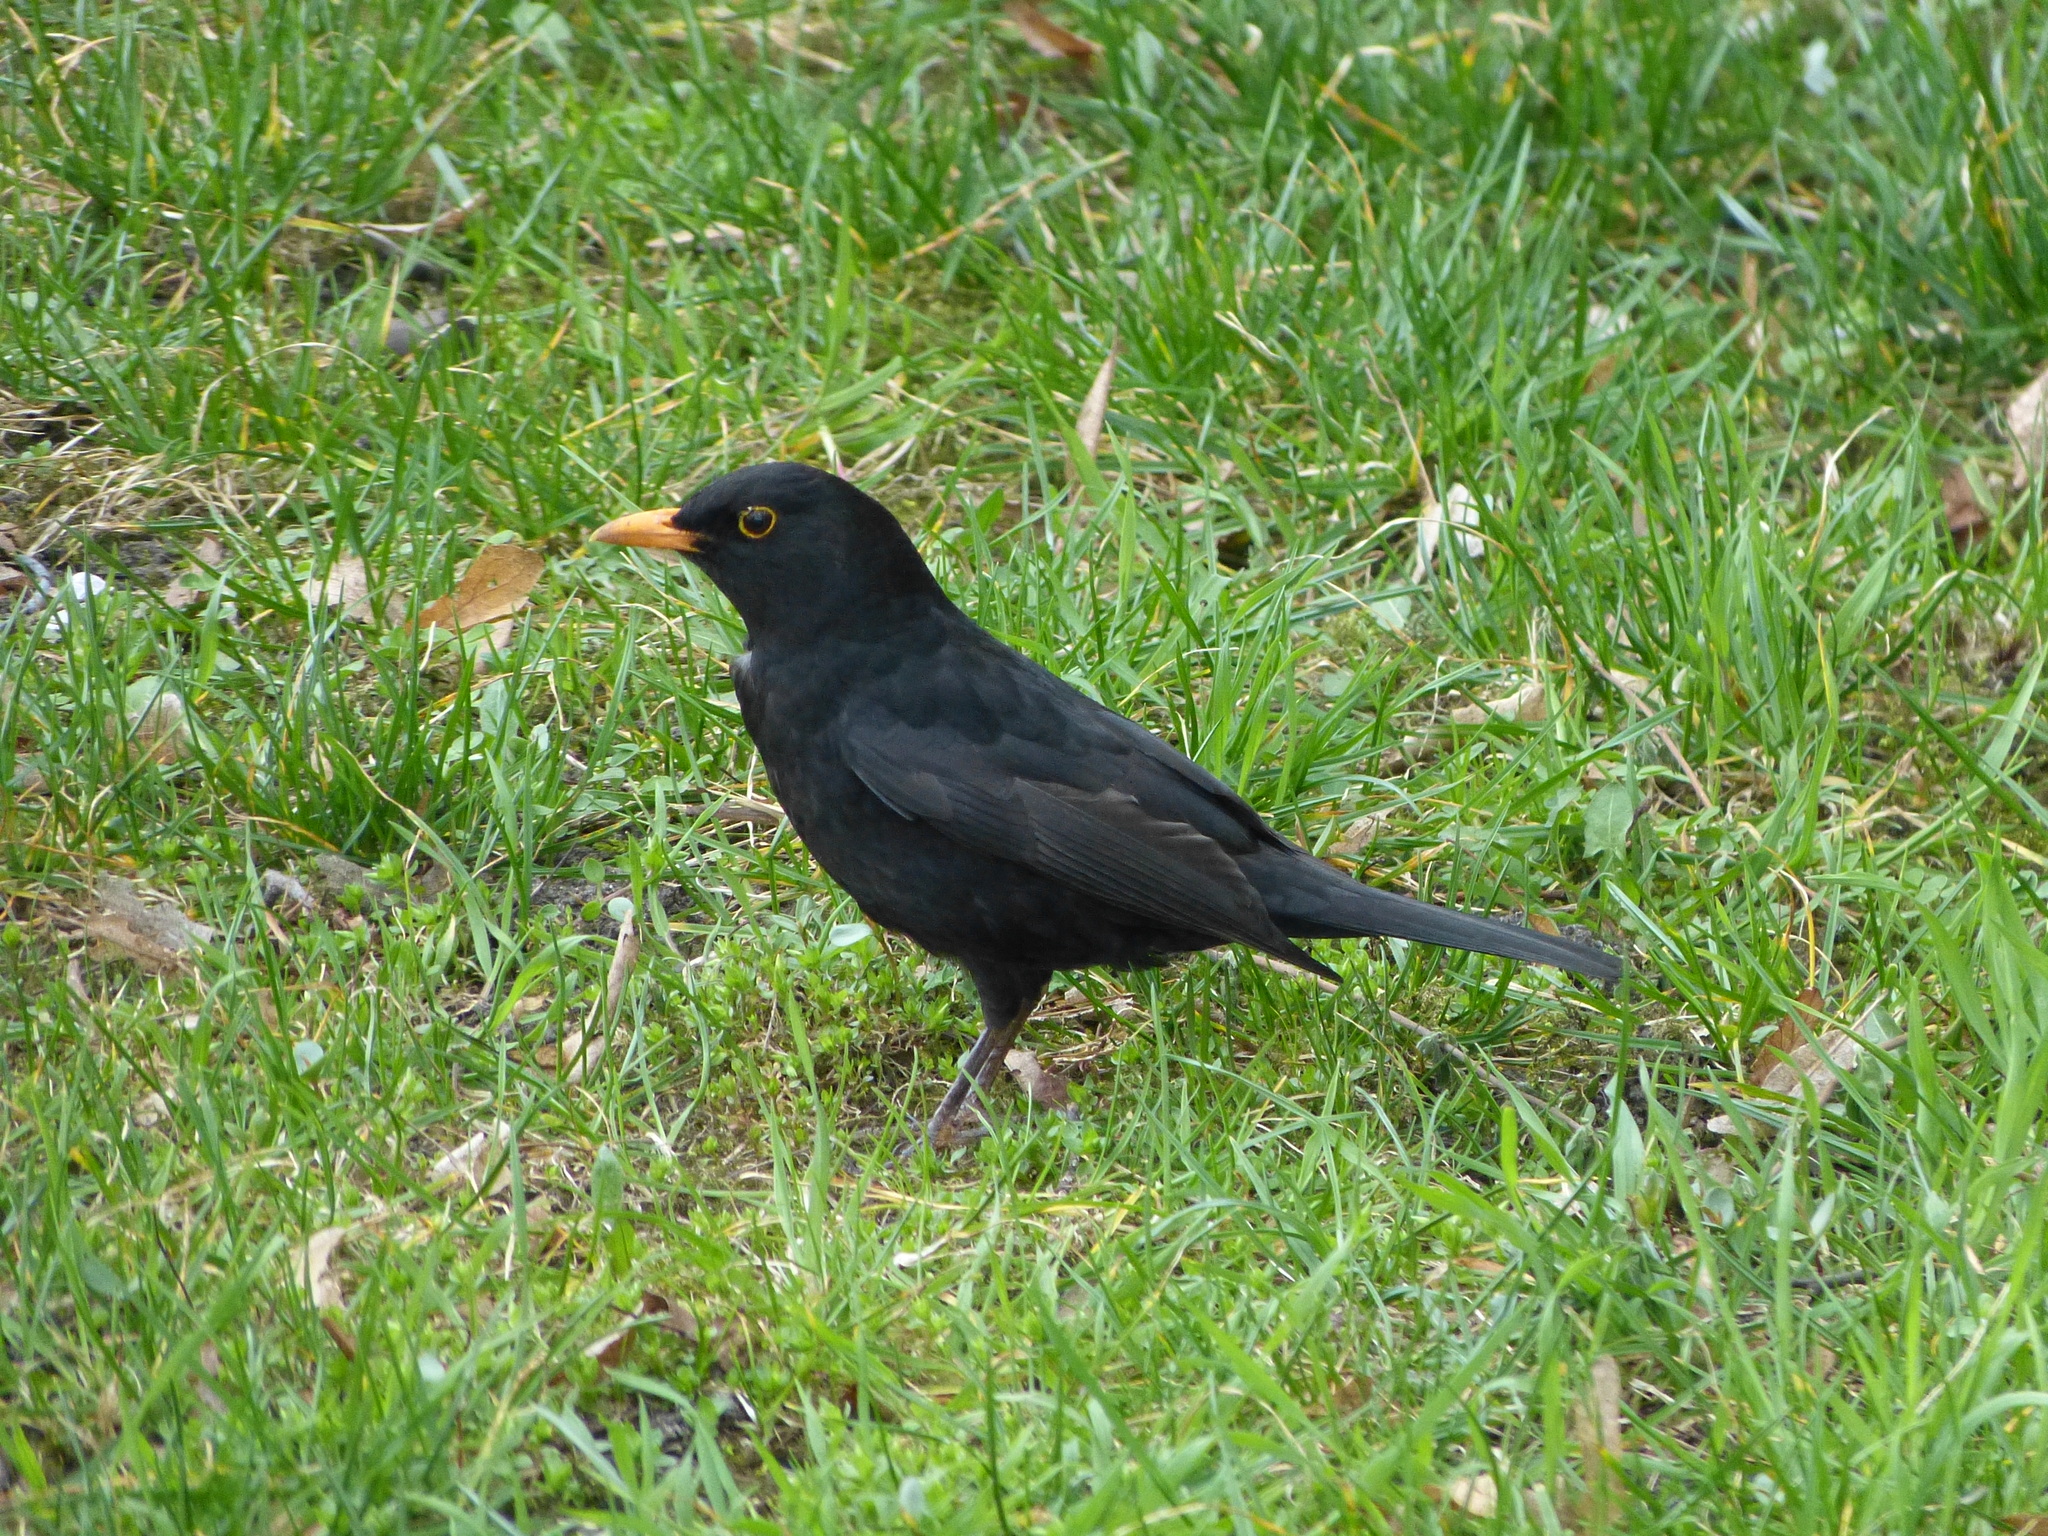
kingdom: Animalia
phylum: Chordata
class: Aves
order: Passeriformes
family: Turdidae
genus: Turdus
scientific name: Turdus merula
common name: Common blackbird
